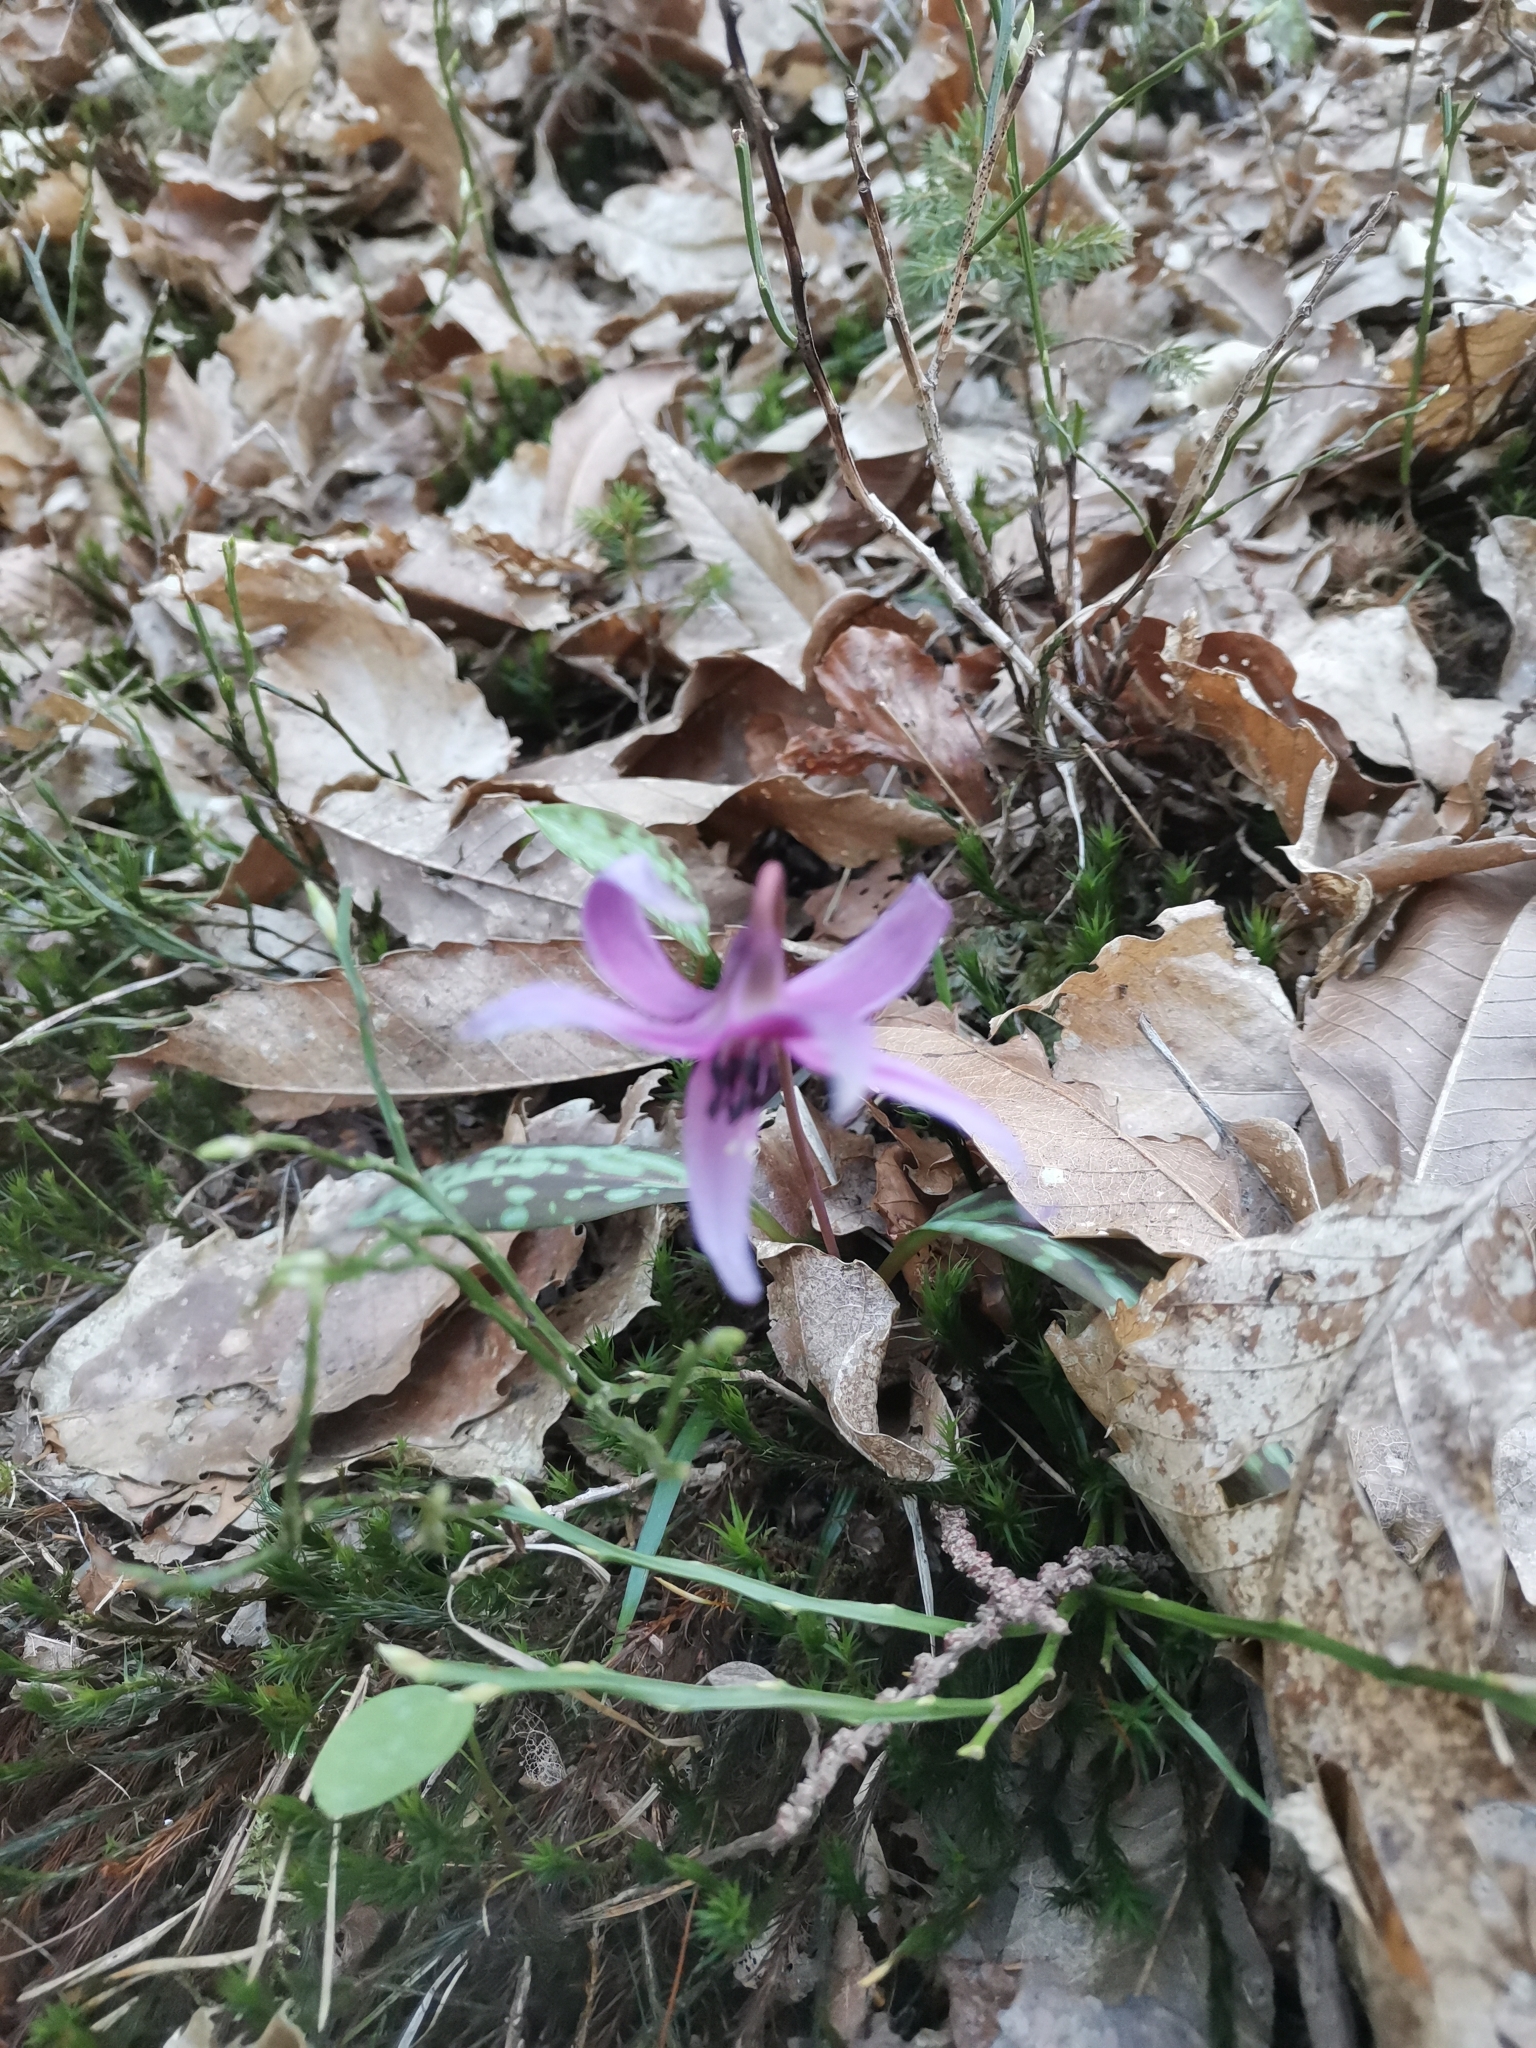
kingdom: Plantae
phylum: Tracheophyta
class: Liliopsida
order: Liliales
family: Liliaceae
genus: Erythronium
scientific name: Erythronium dens-canis
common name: Dog's-tooth-violet
